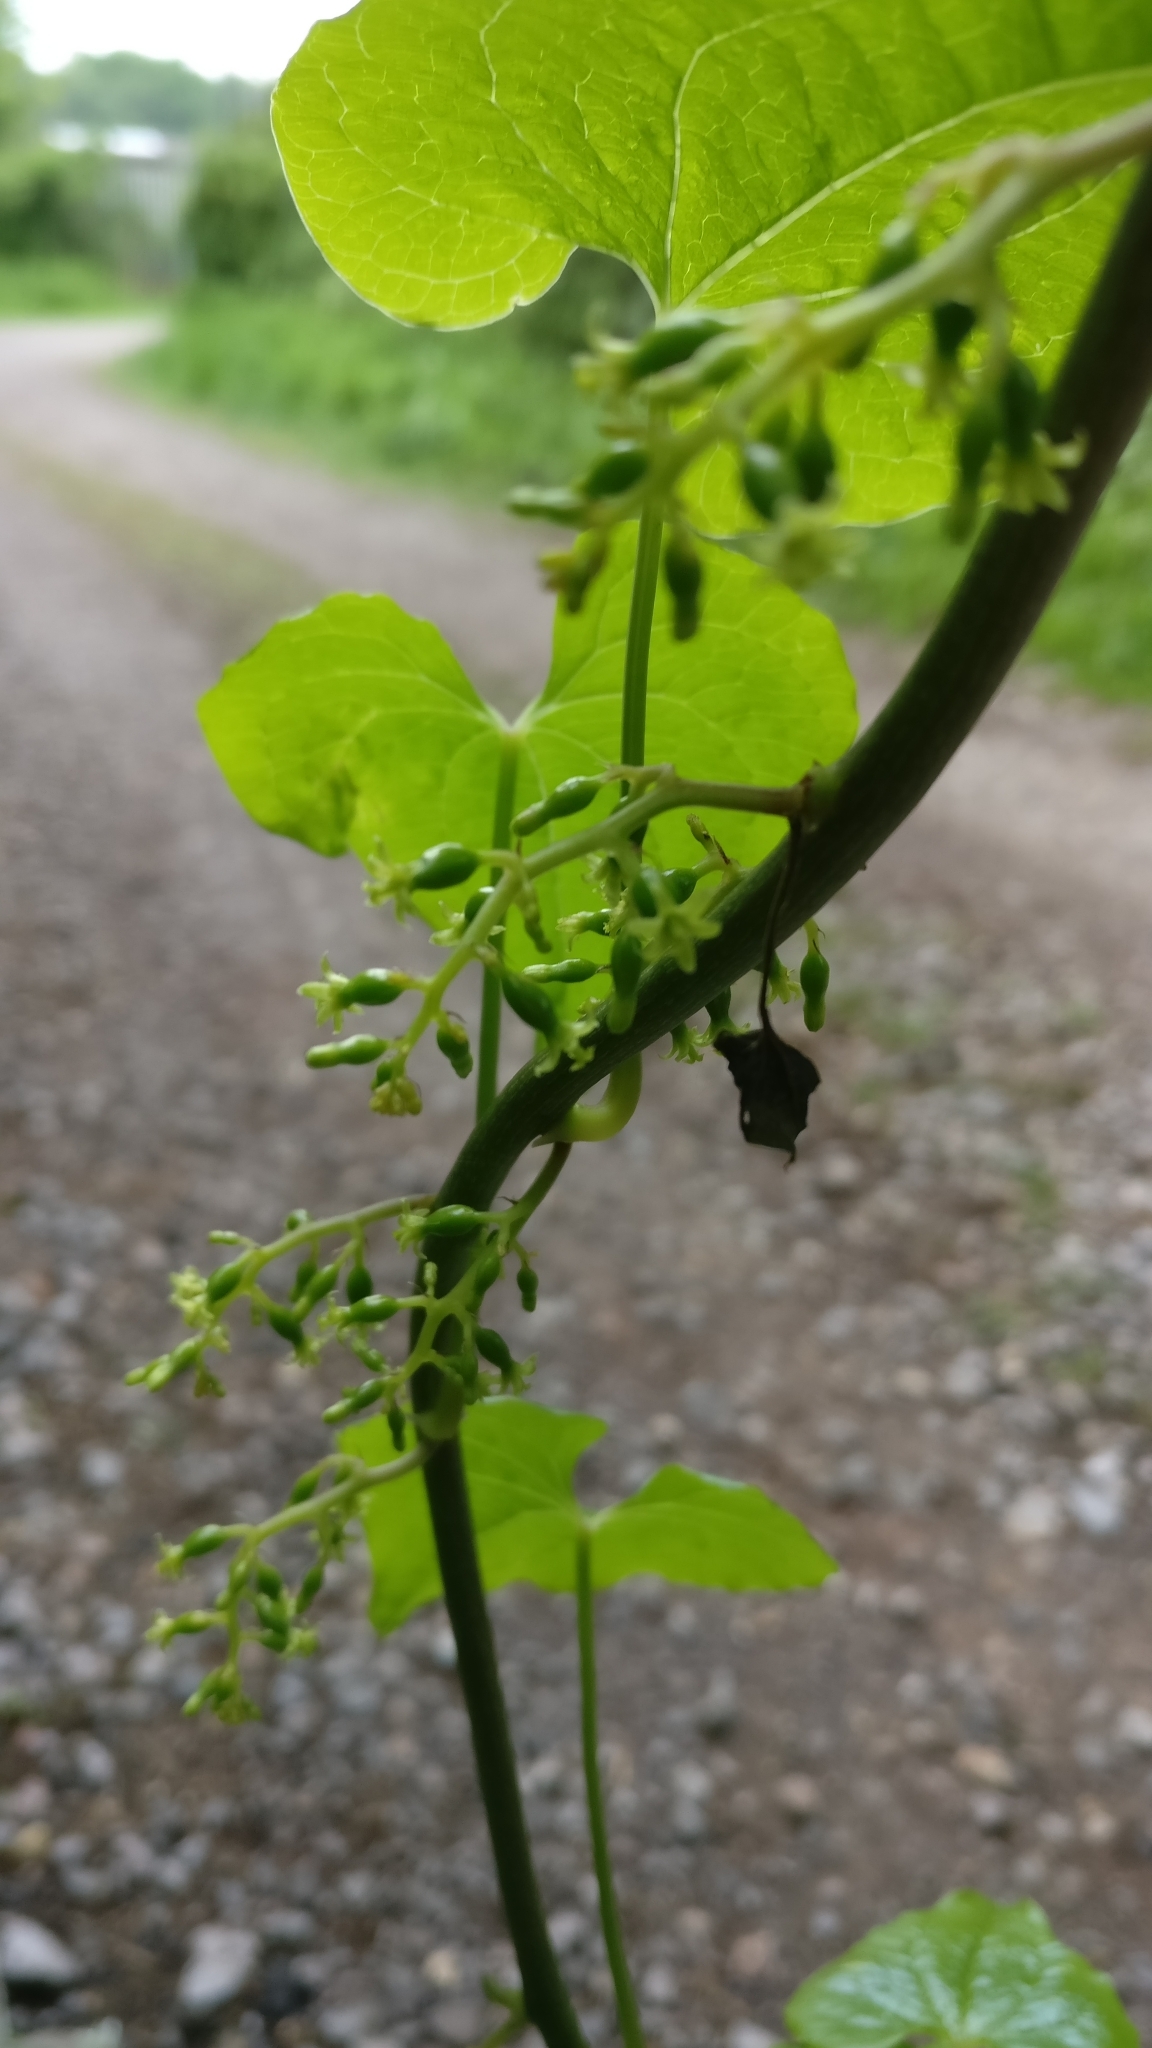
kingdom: Plantae
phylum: Tracheophyta
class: Liliopsida
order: Dioscoreales
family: Dioscoreaceae
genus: Dioscorea
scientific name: Dioscorea communis
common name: Black-bindweed
